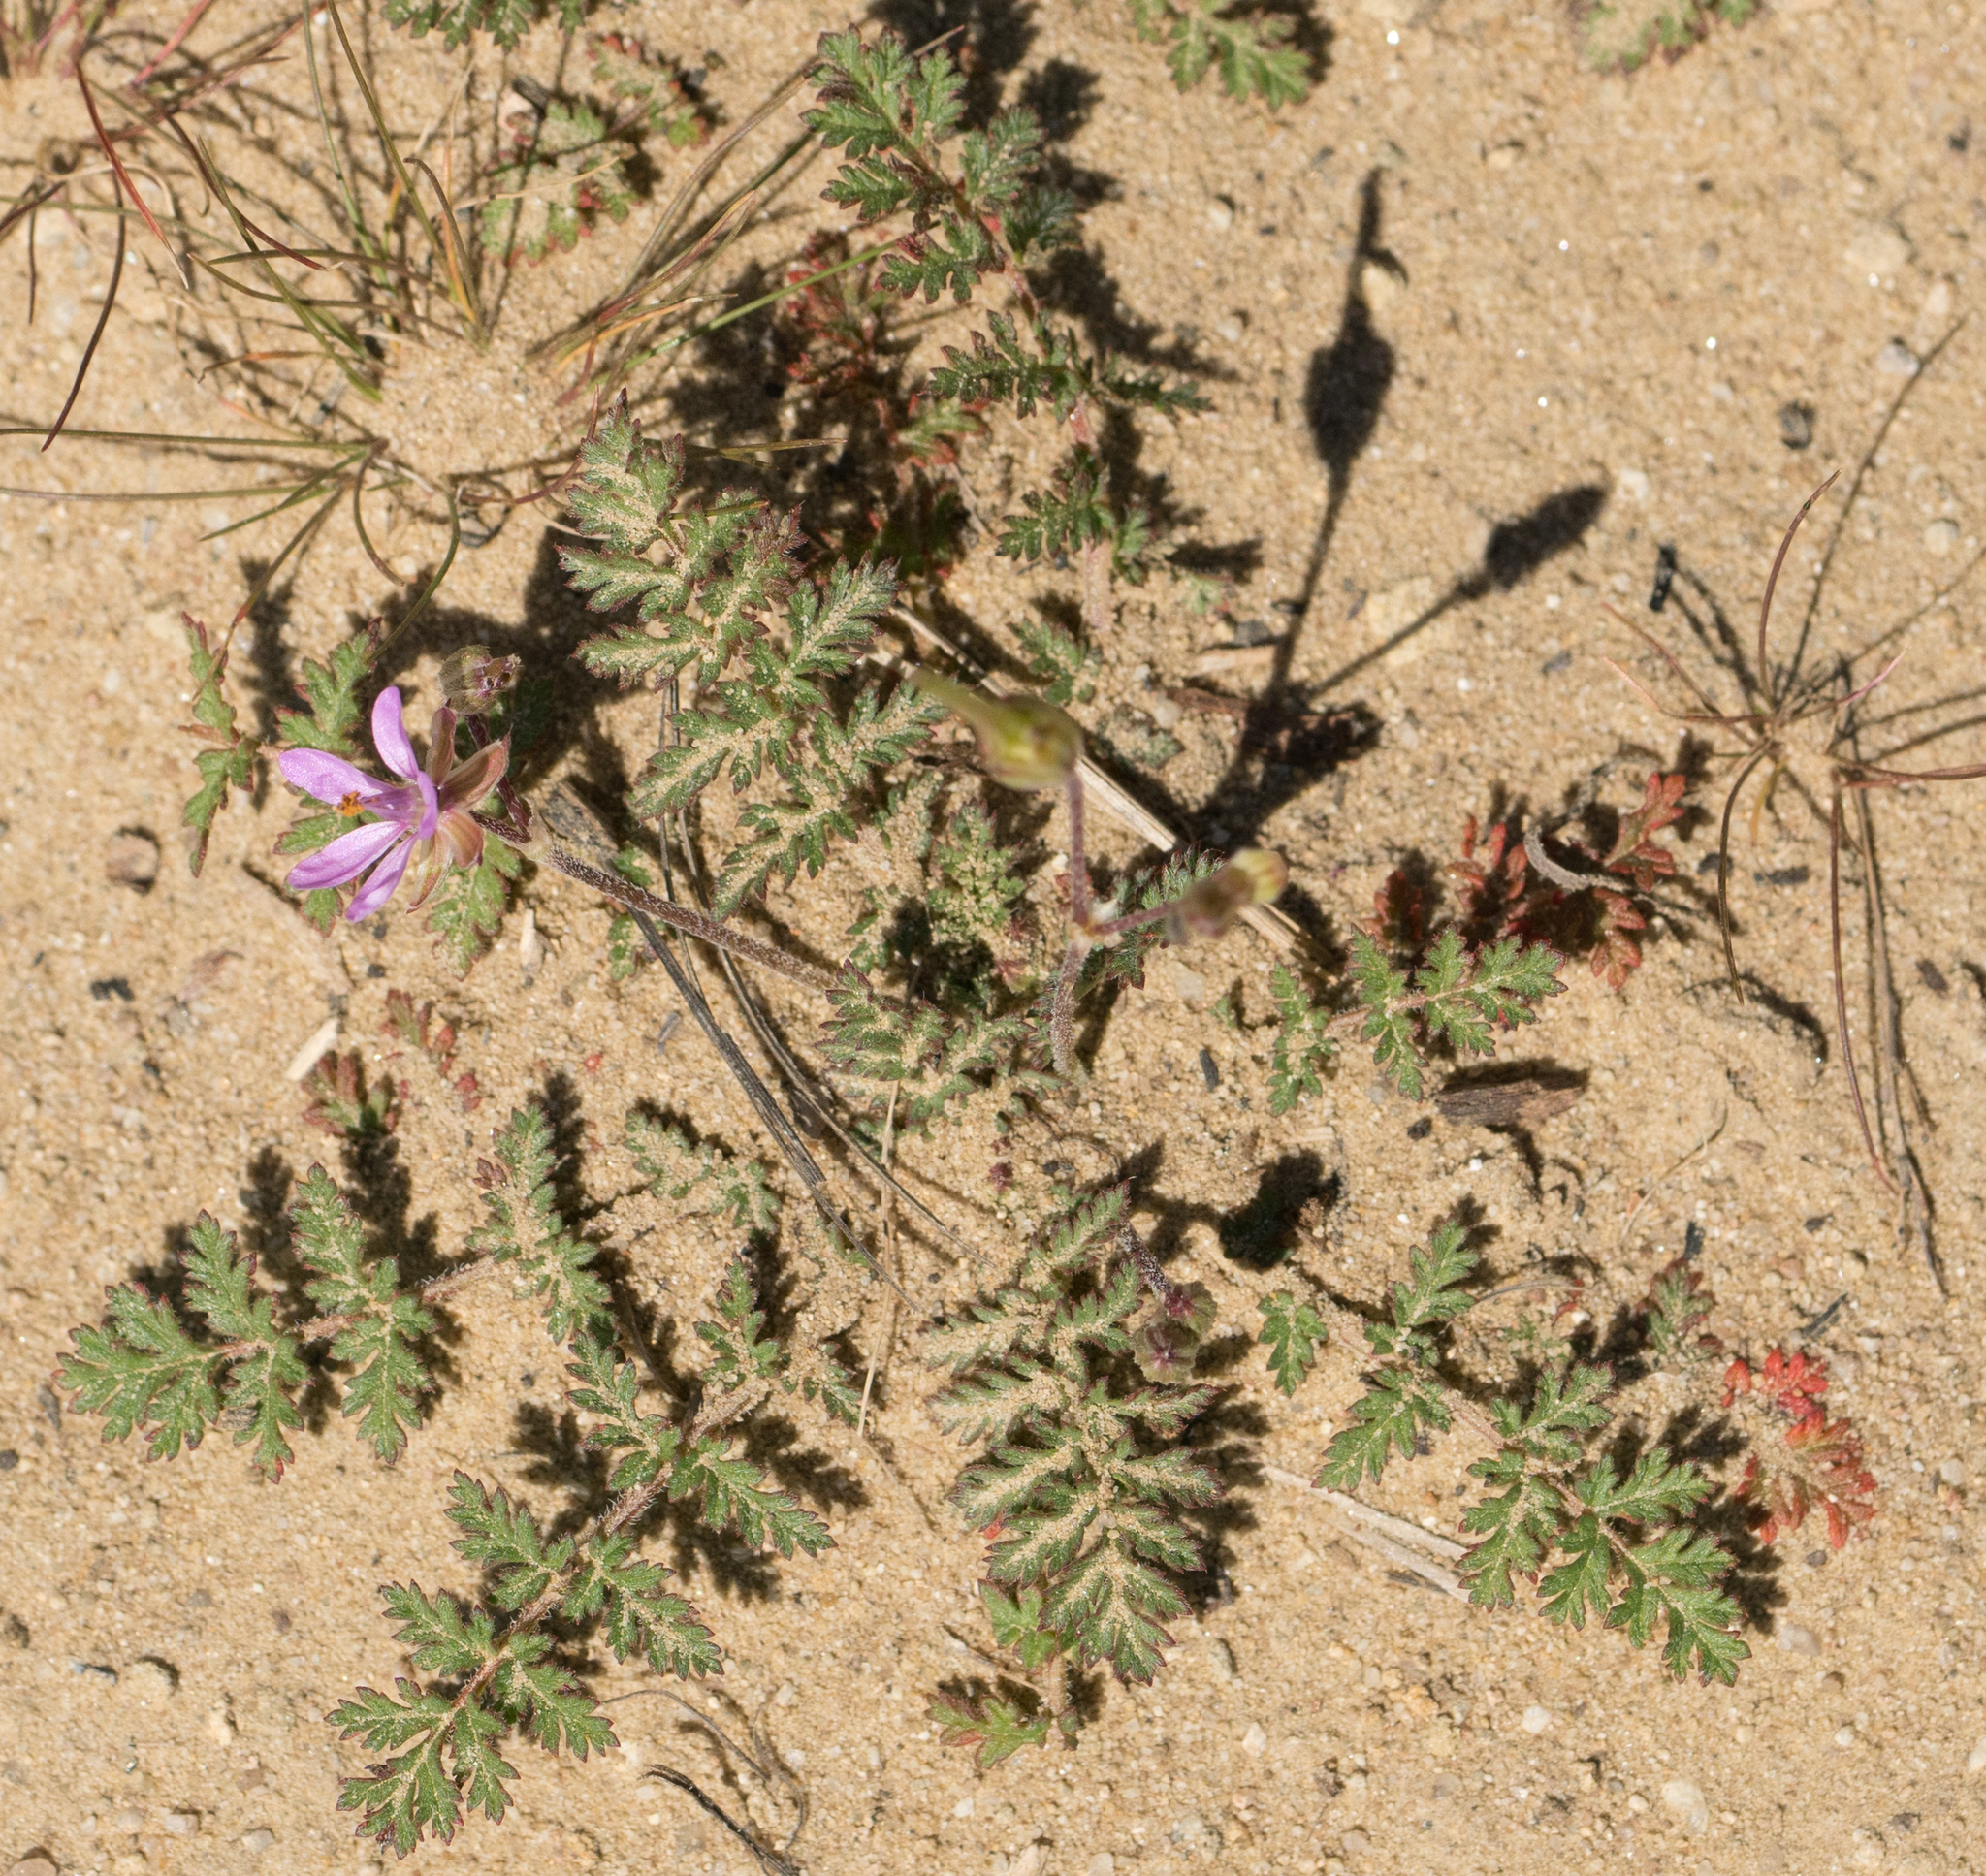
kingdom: Plantae
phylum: Tracheophyta
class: Magnoliopsida
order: Geraniales
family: Geraniaceae
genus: Erodium
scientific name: Erodium cicutarium
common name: Common stork's-bill
